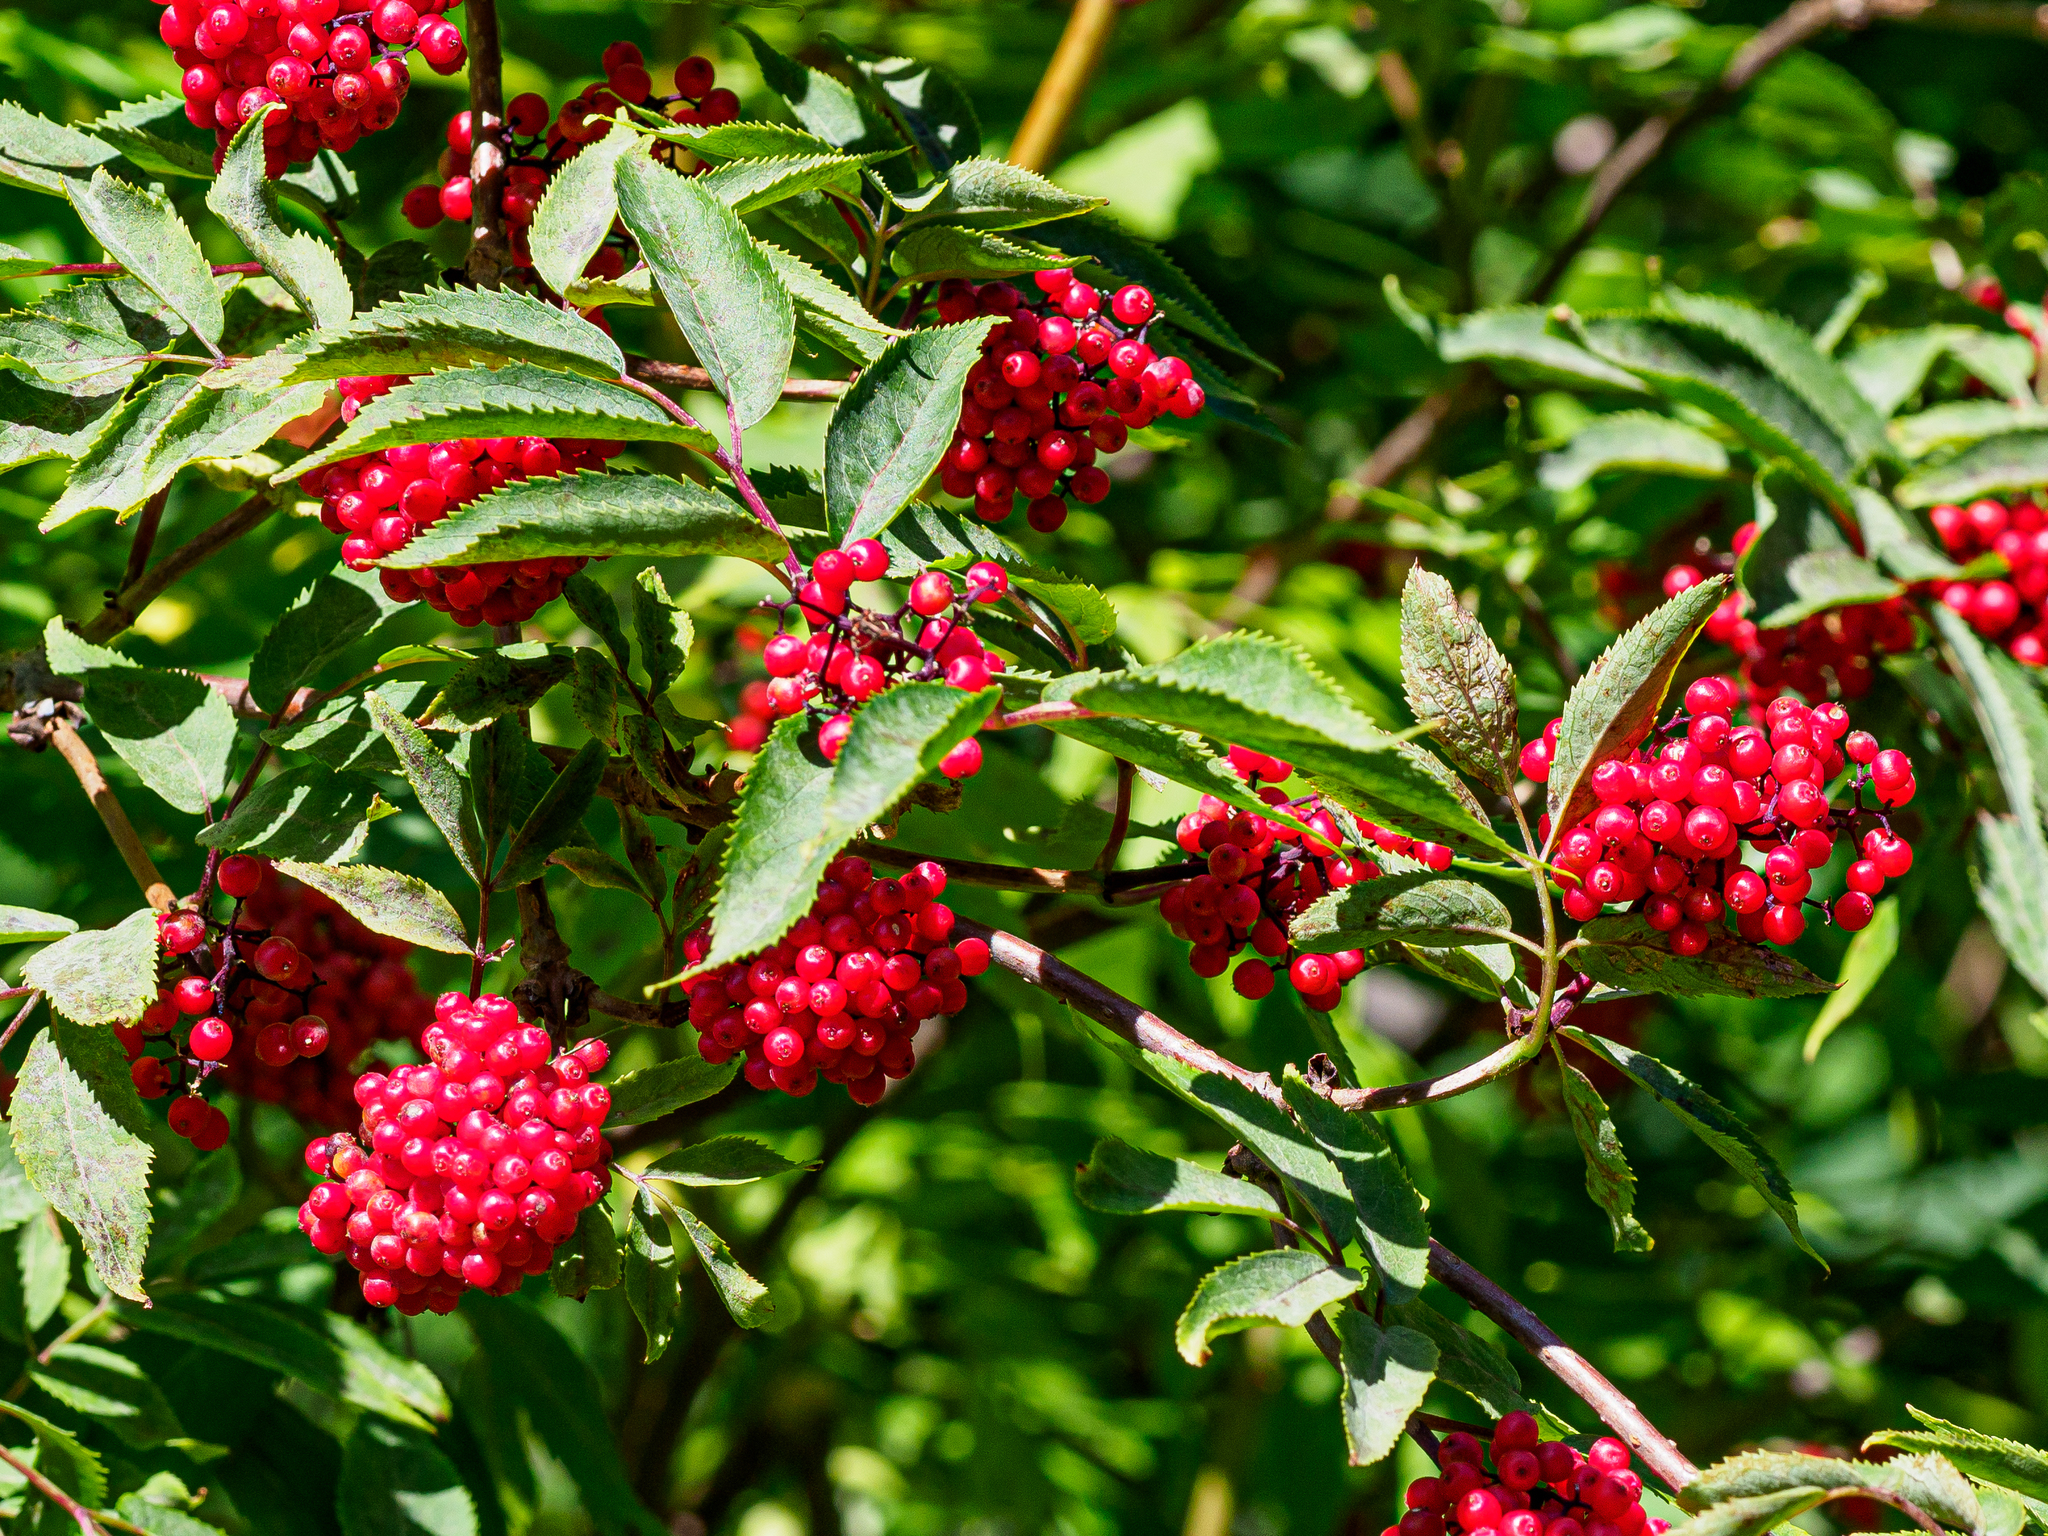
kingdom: Plantae
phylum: Tracheophyta
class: Magnoliopsida
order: Dipsacales
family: Viburnaceae
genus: Sambucus
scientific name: Sambucus racemosa
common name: Red-berried elder
